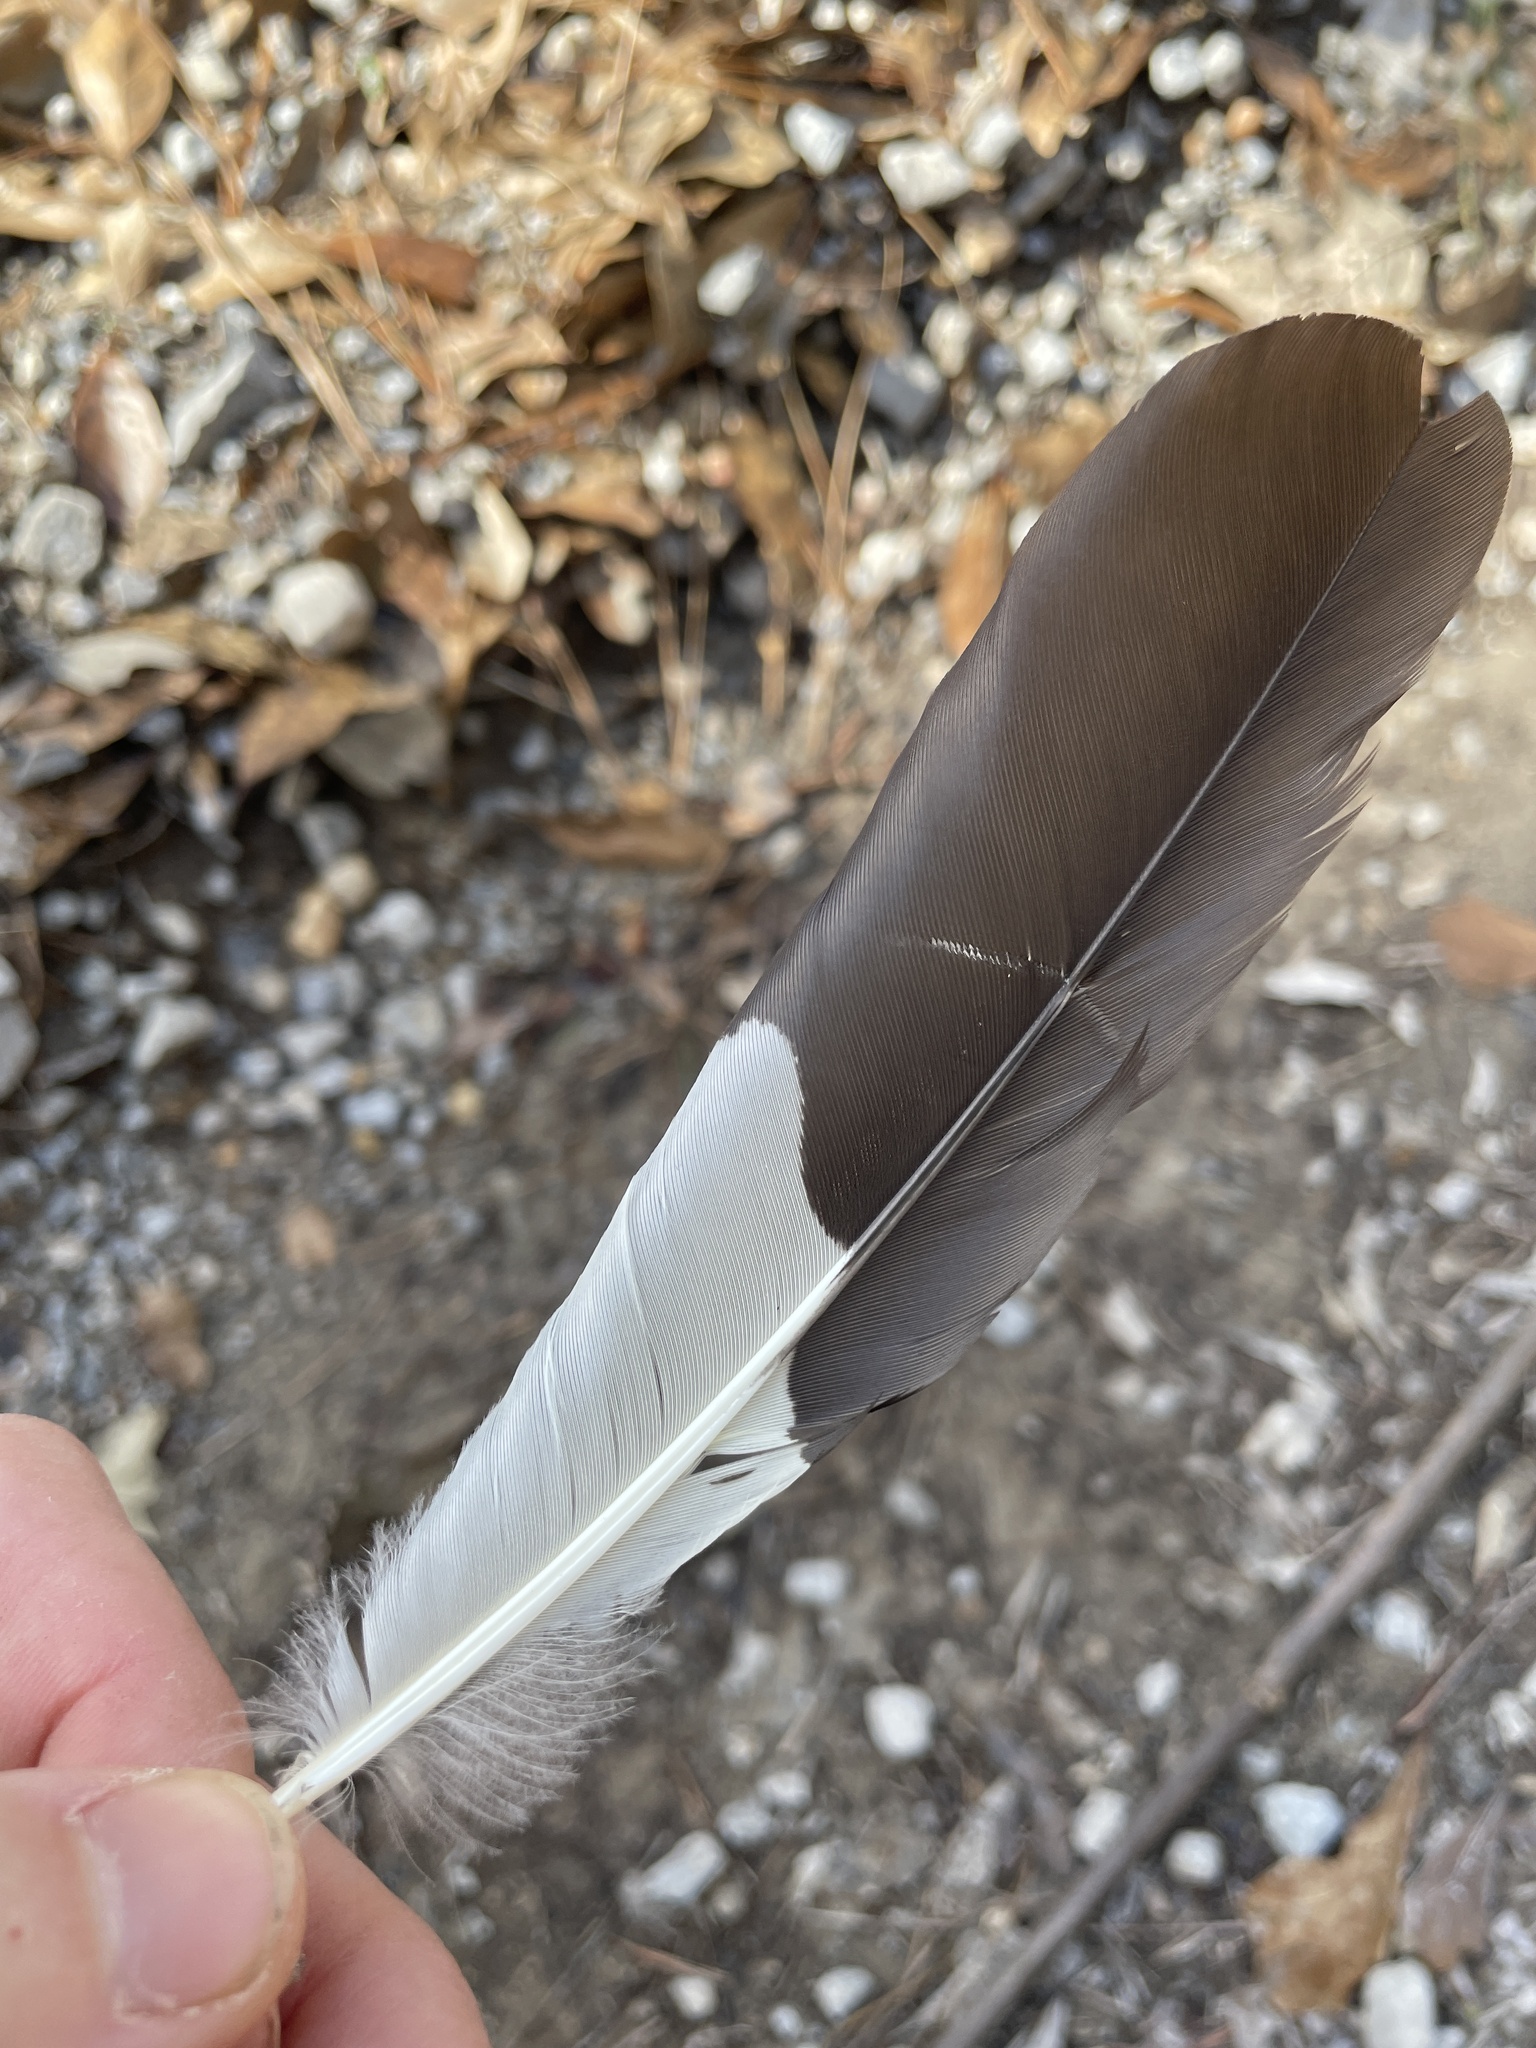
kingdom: Animalia
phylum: Chordata
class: Aves
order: Piciformes
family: Picidae
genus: Dryocopus
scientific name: Dryocopus pileatus
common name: Pileated woodpecker
